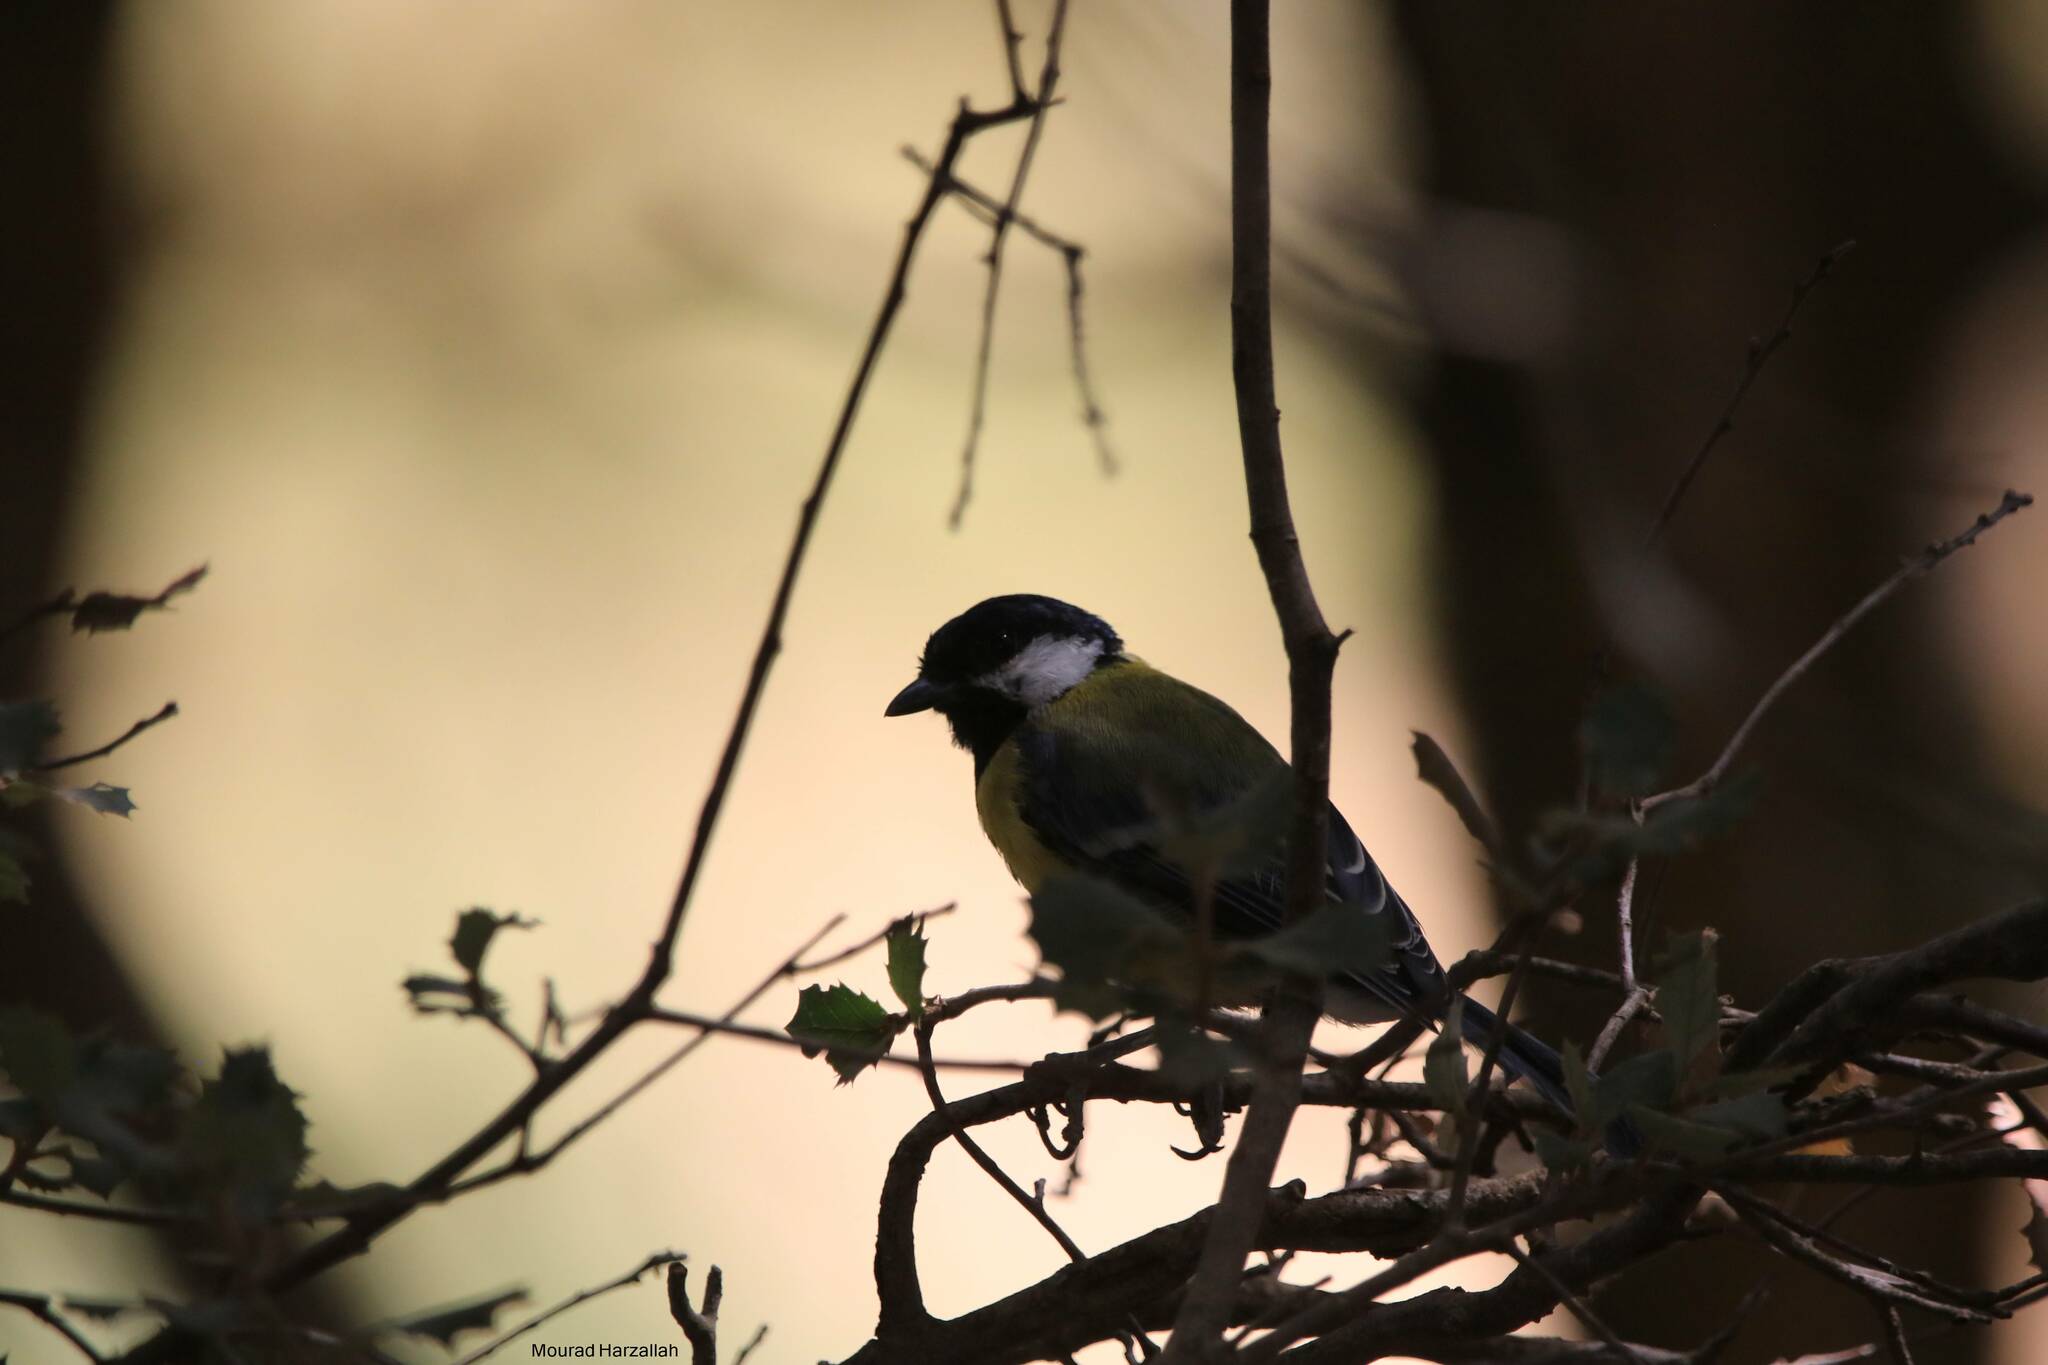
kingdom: Animalia
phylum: Chordata
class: Aves
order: Passeriformes
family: Paridae
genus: Parus
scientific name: Parus major
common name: Great tit
